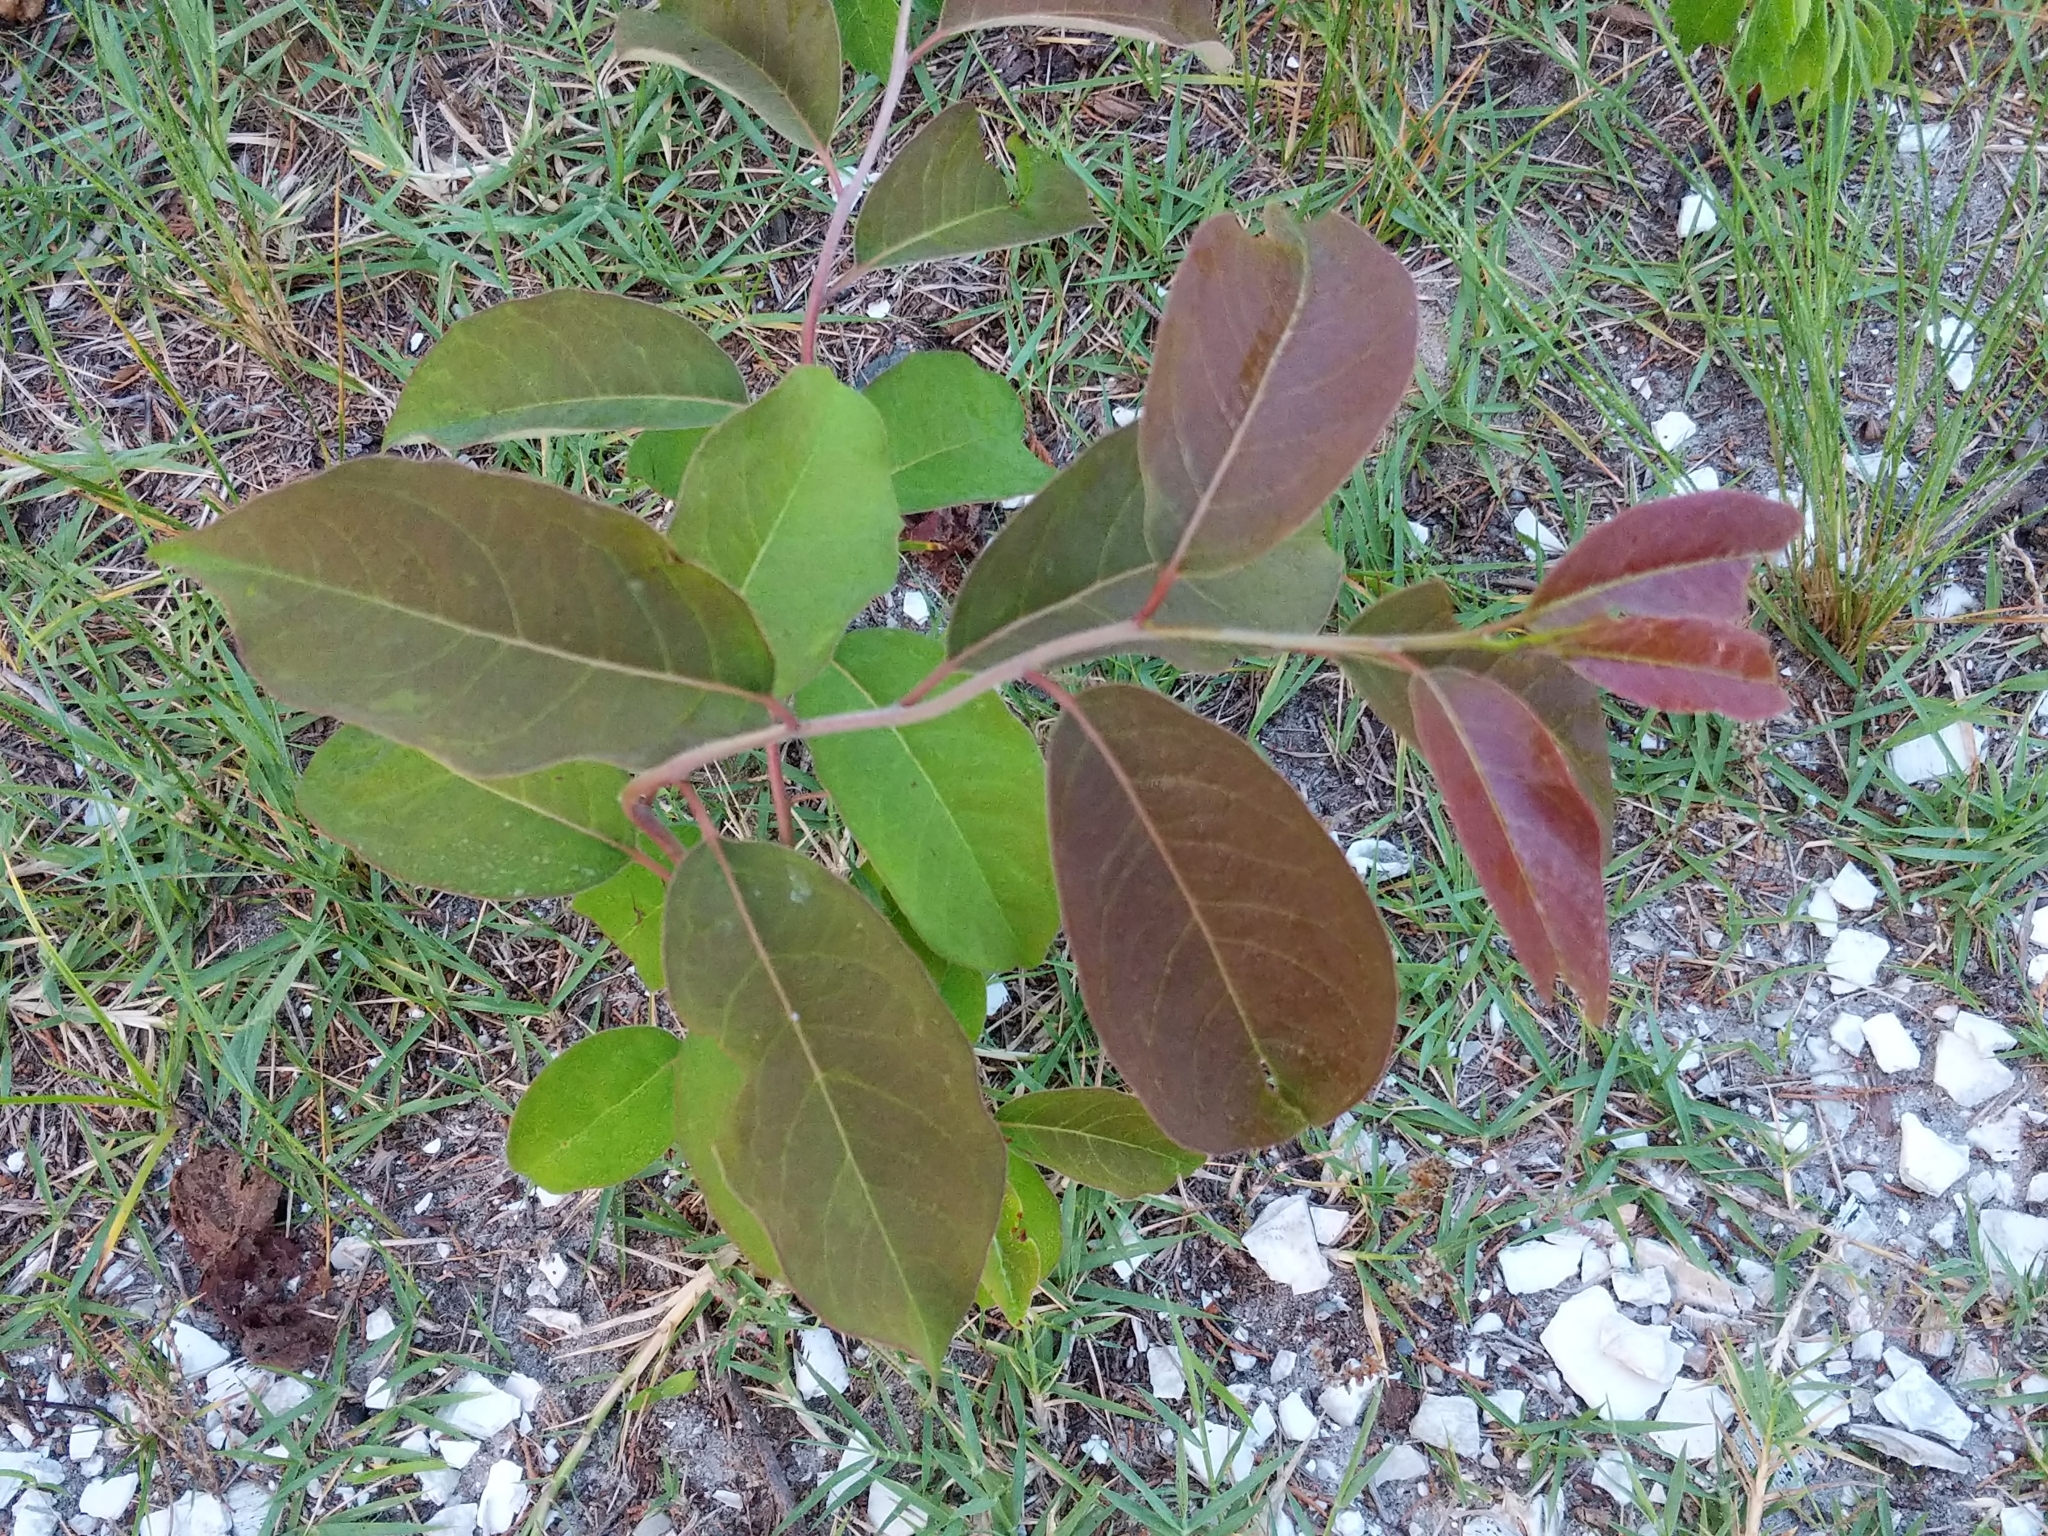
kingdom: Plantae
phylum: Tracheophyta
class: Magnoliopsida
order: Ericales
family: Ebenaceae
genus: Diospyros
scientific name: Diospyros virginiana
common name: Persimmon
